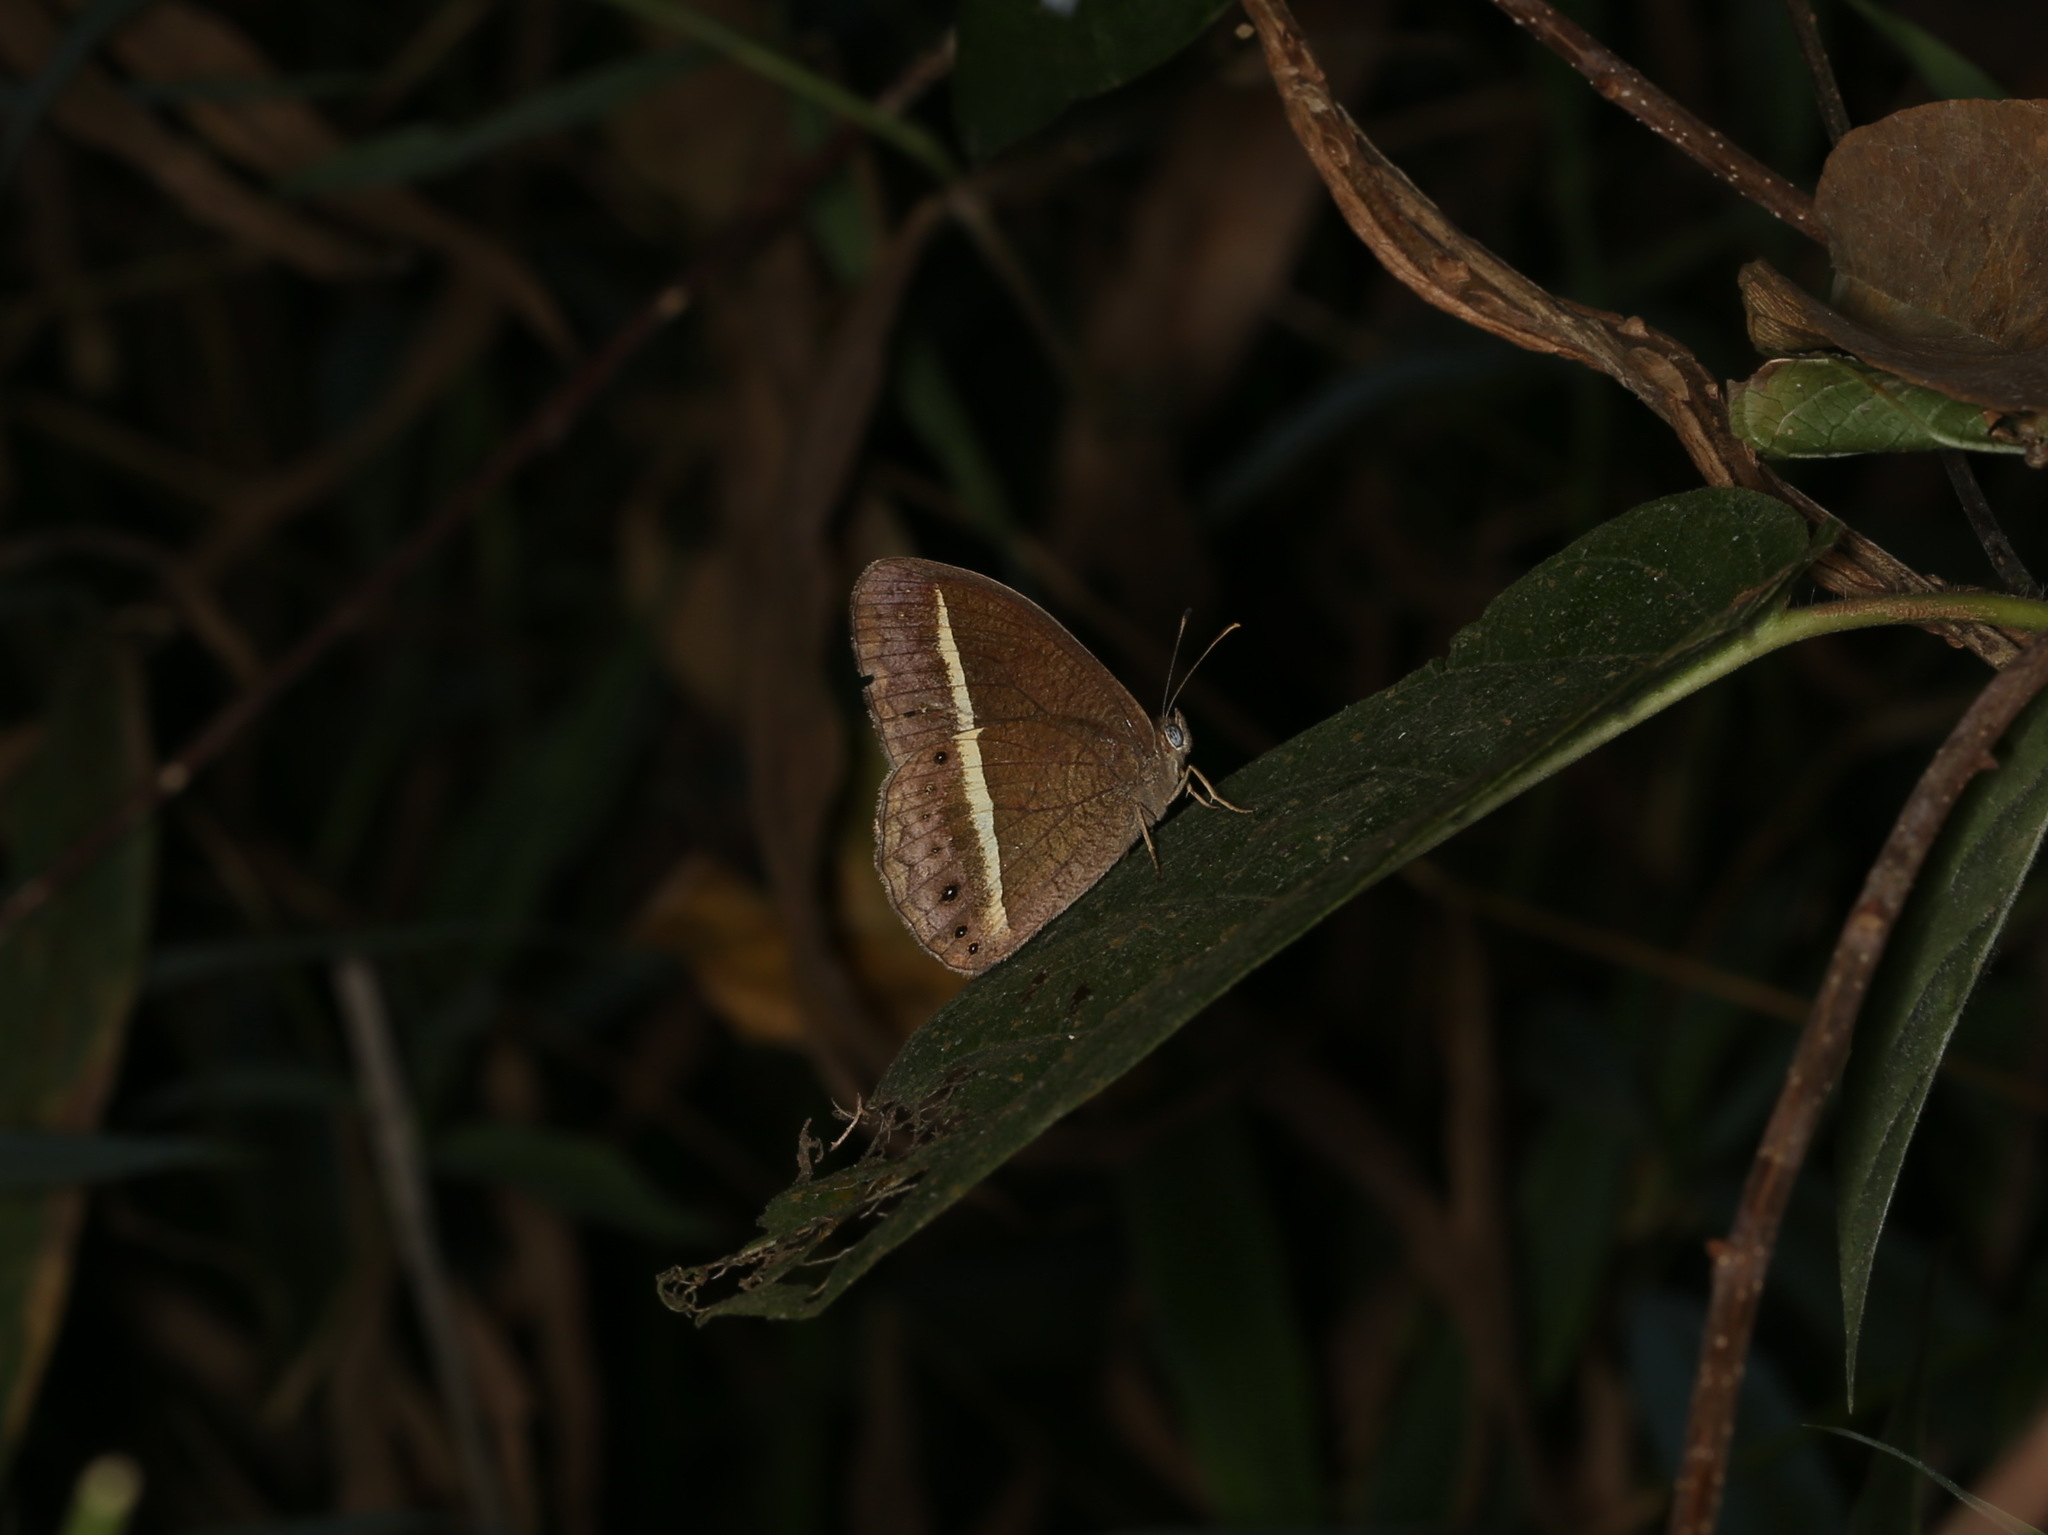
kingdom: Animalia
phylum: Arthropoda
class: Insecta
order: Lepidoptera
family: Nymphalidae
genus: Mycalesis
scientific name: Mycalesis Telinga malsara
